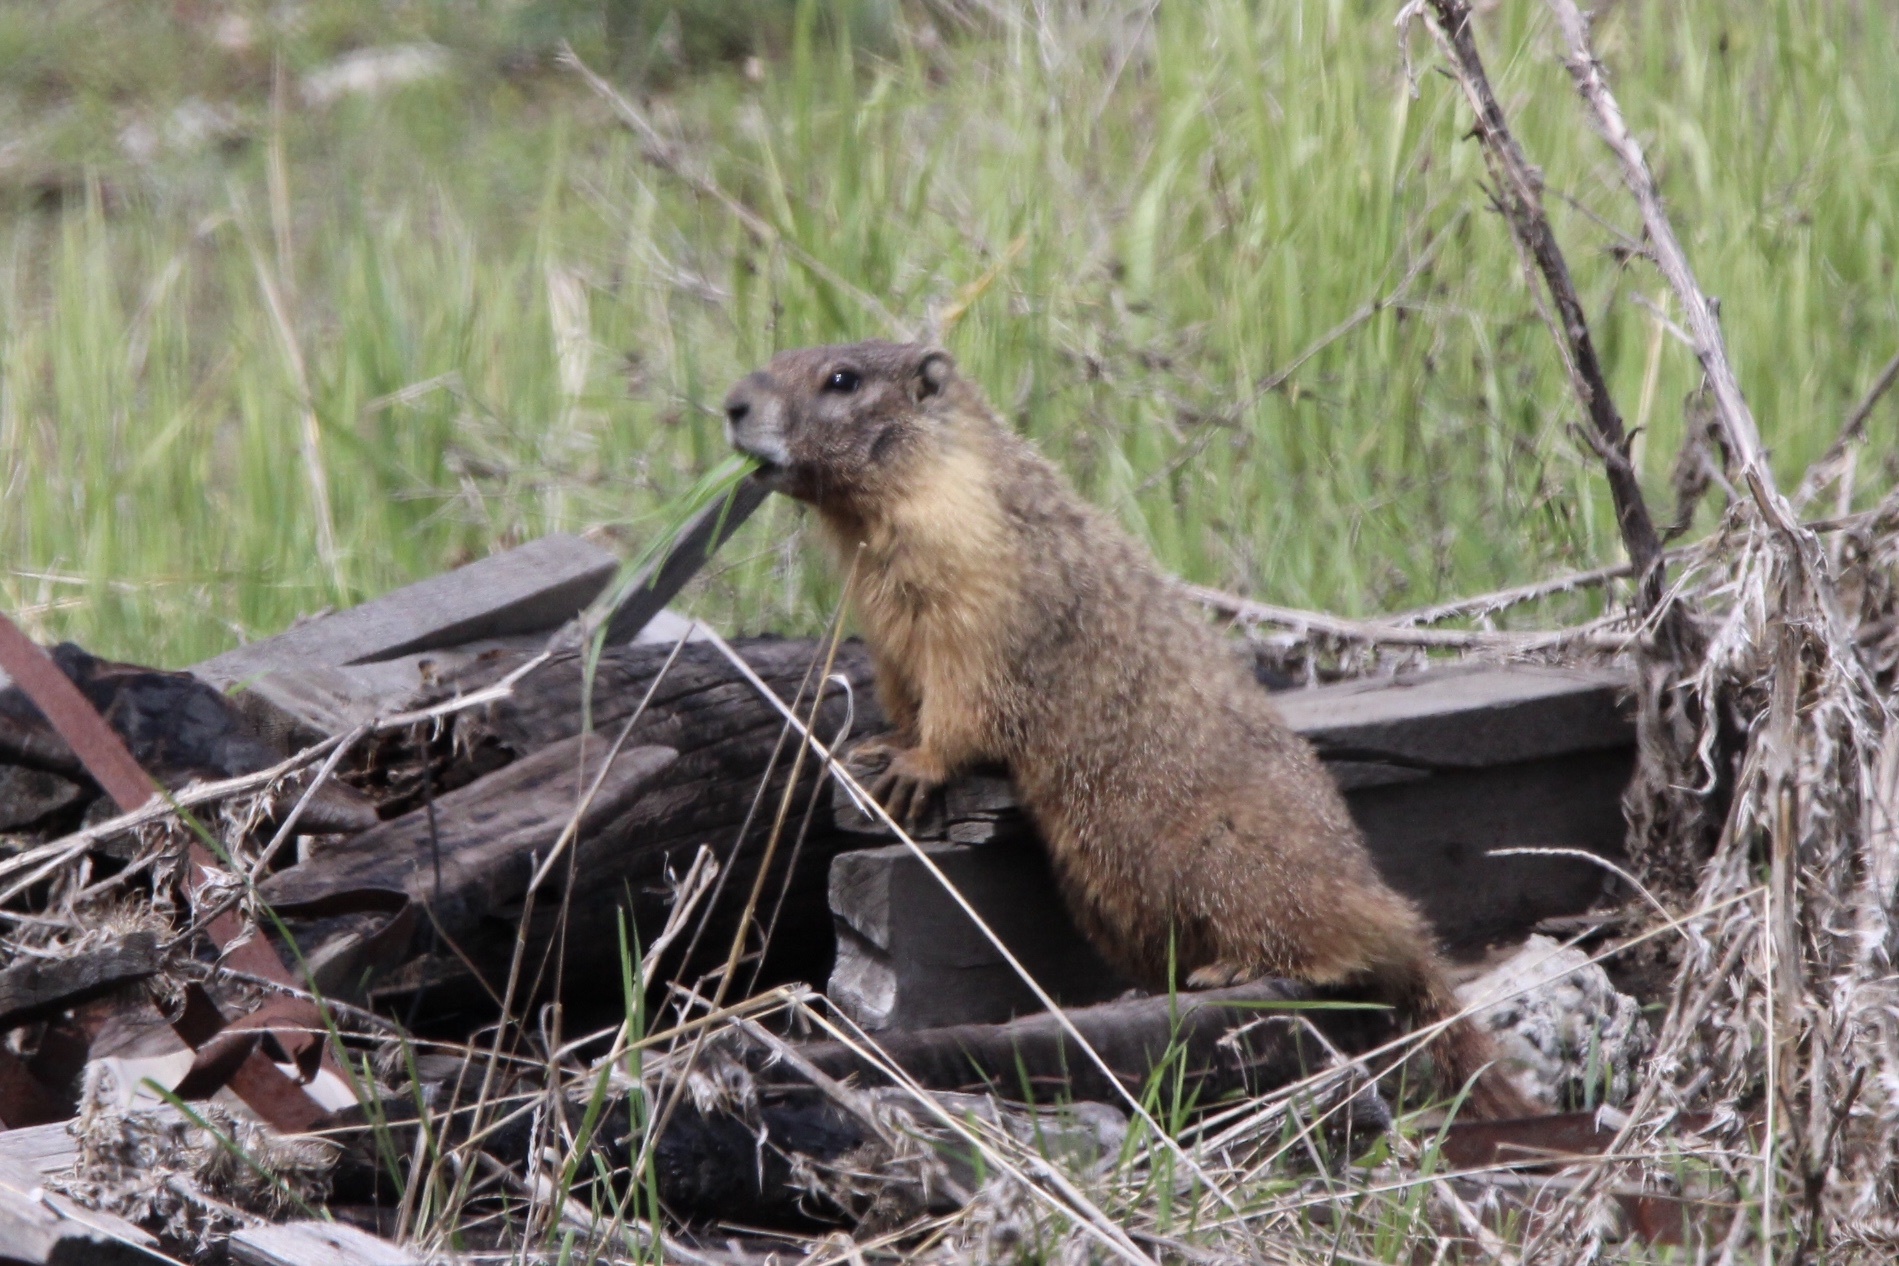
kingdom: Animalia
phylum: Chordata
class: Mammalia
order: Rodentia
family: Sciuridae
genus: Marmota
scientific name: Marmota flaviventris
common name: Yellow-bellied marmot
